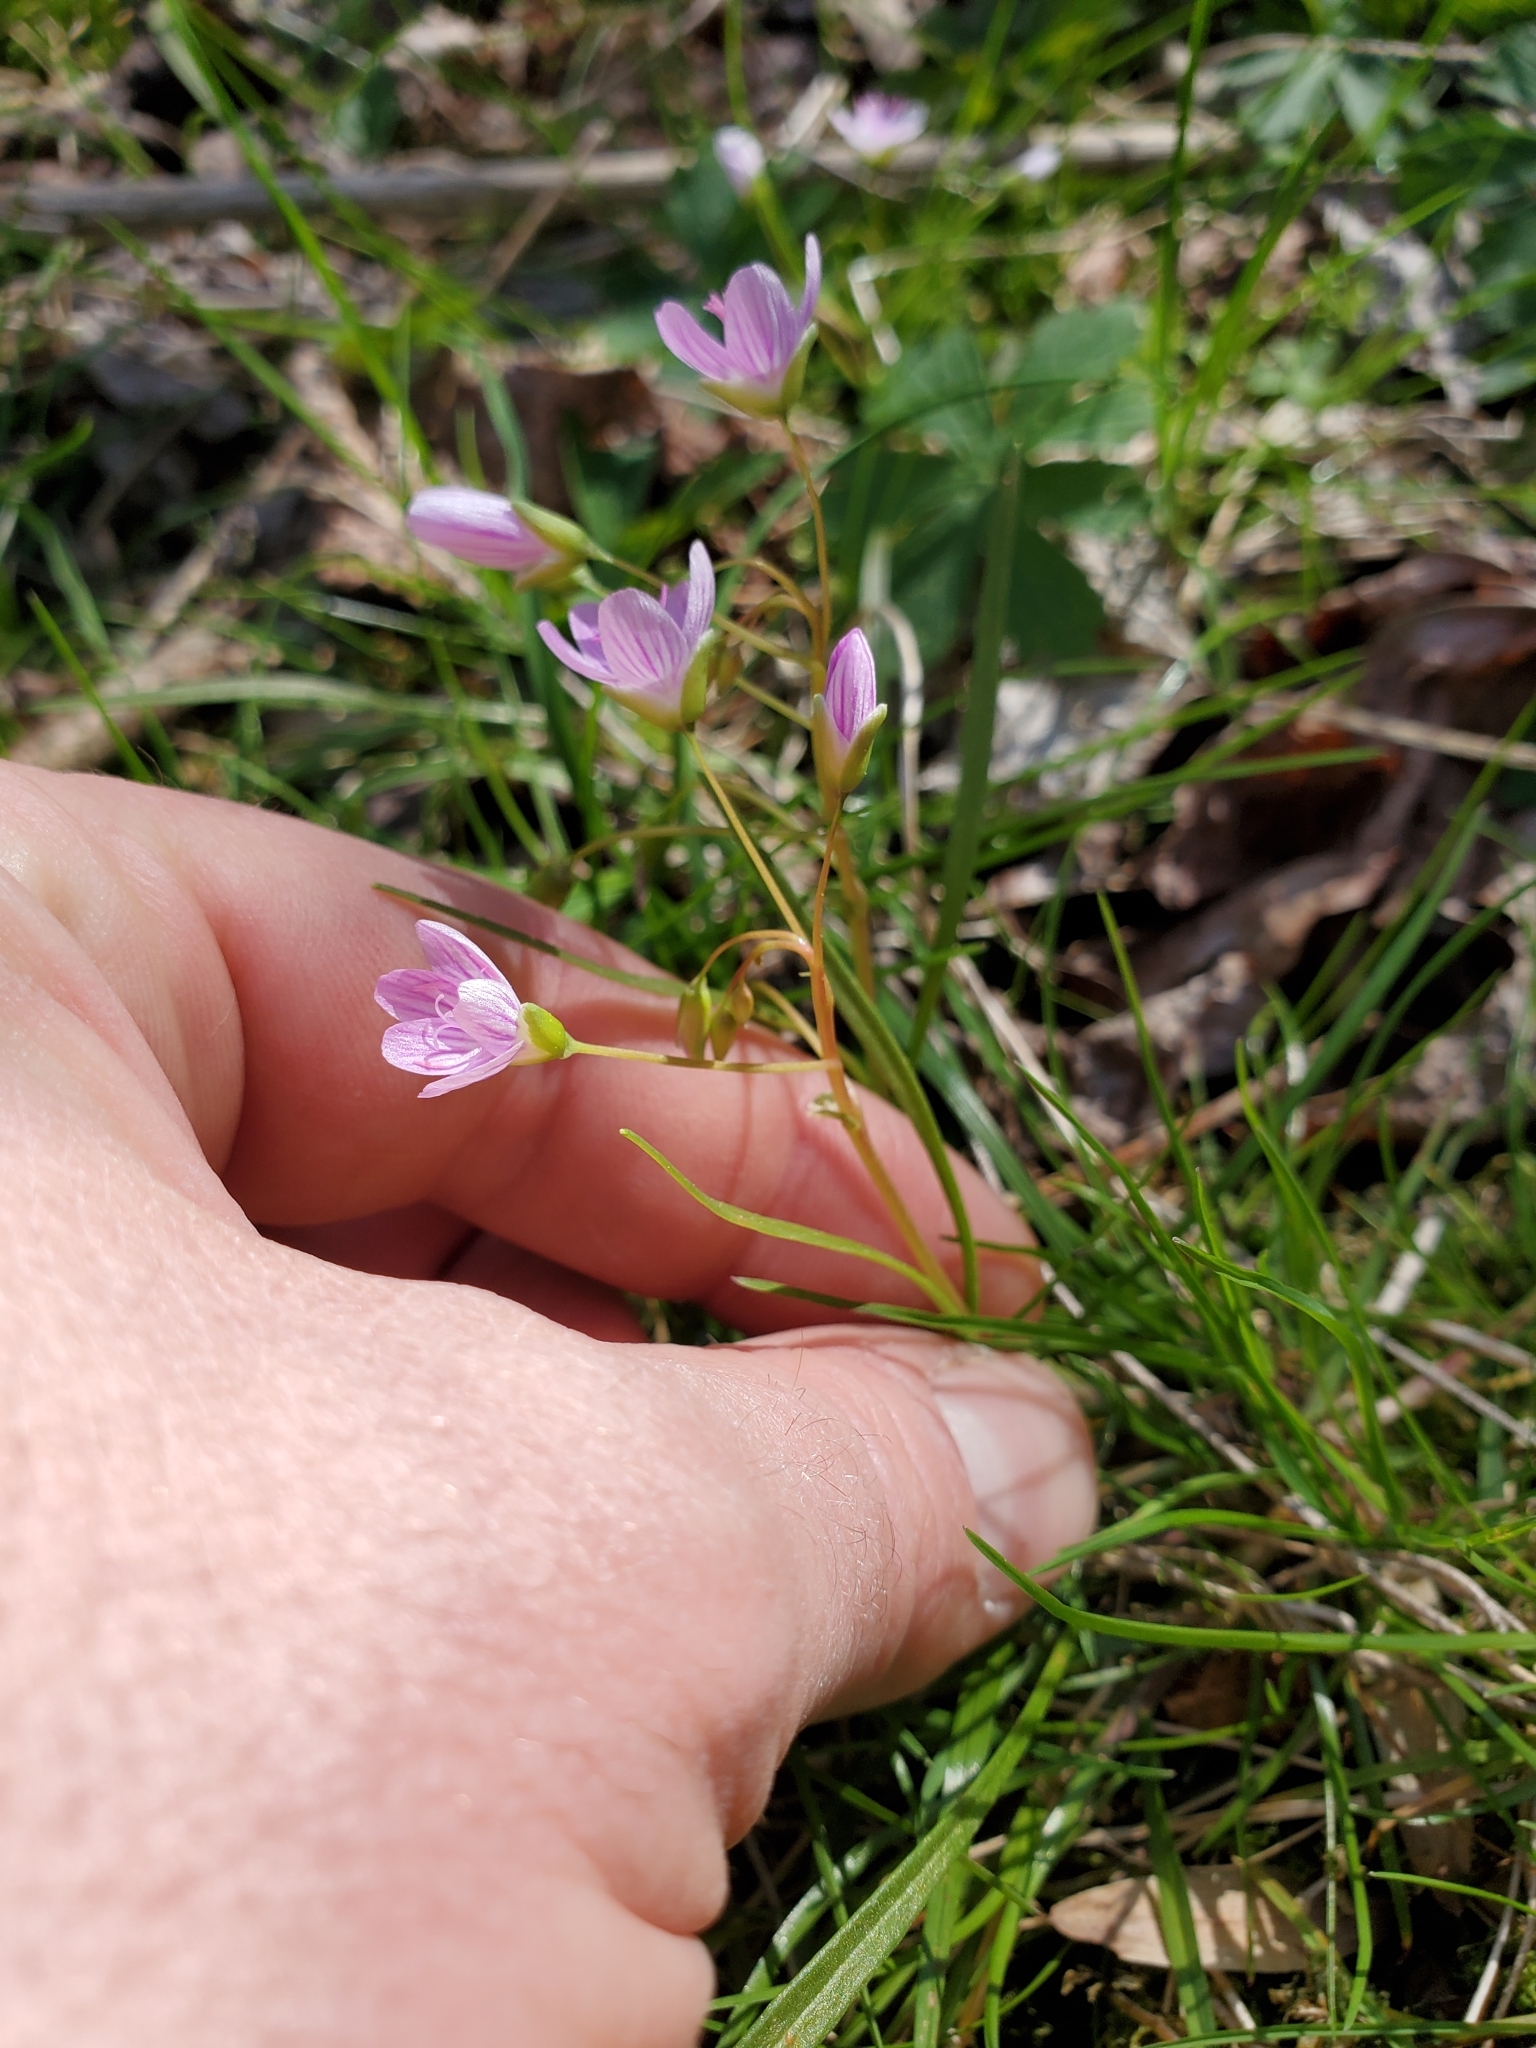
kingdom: Plantae
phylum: Tracheophyta
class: Magnoliopsida
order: Caryophyllales
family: Montiaceae
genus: Claytonia
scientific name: Claytonia virginica
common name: Virginia springbeauty
